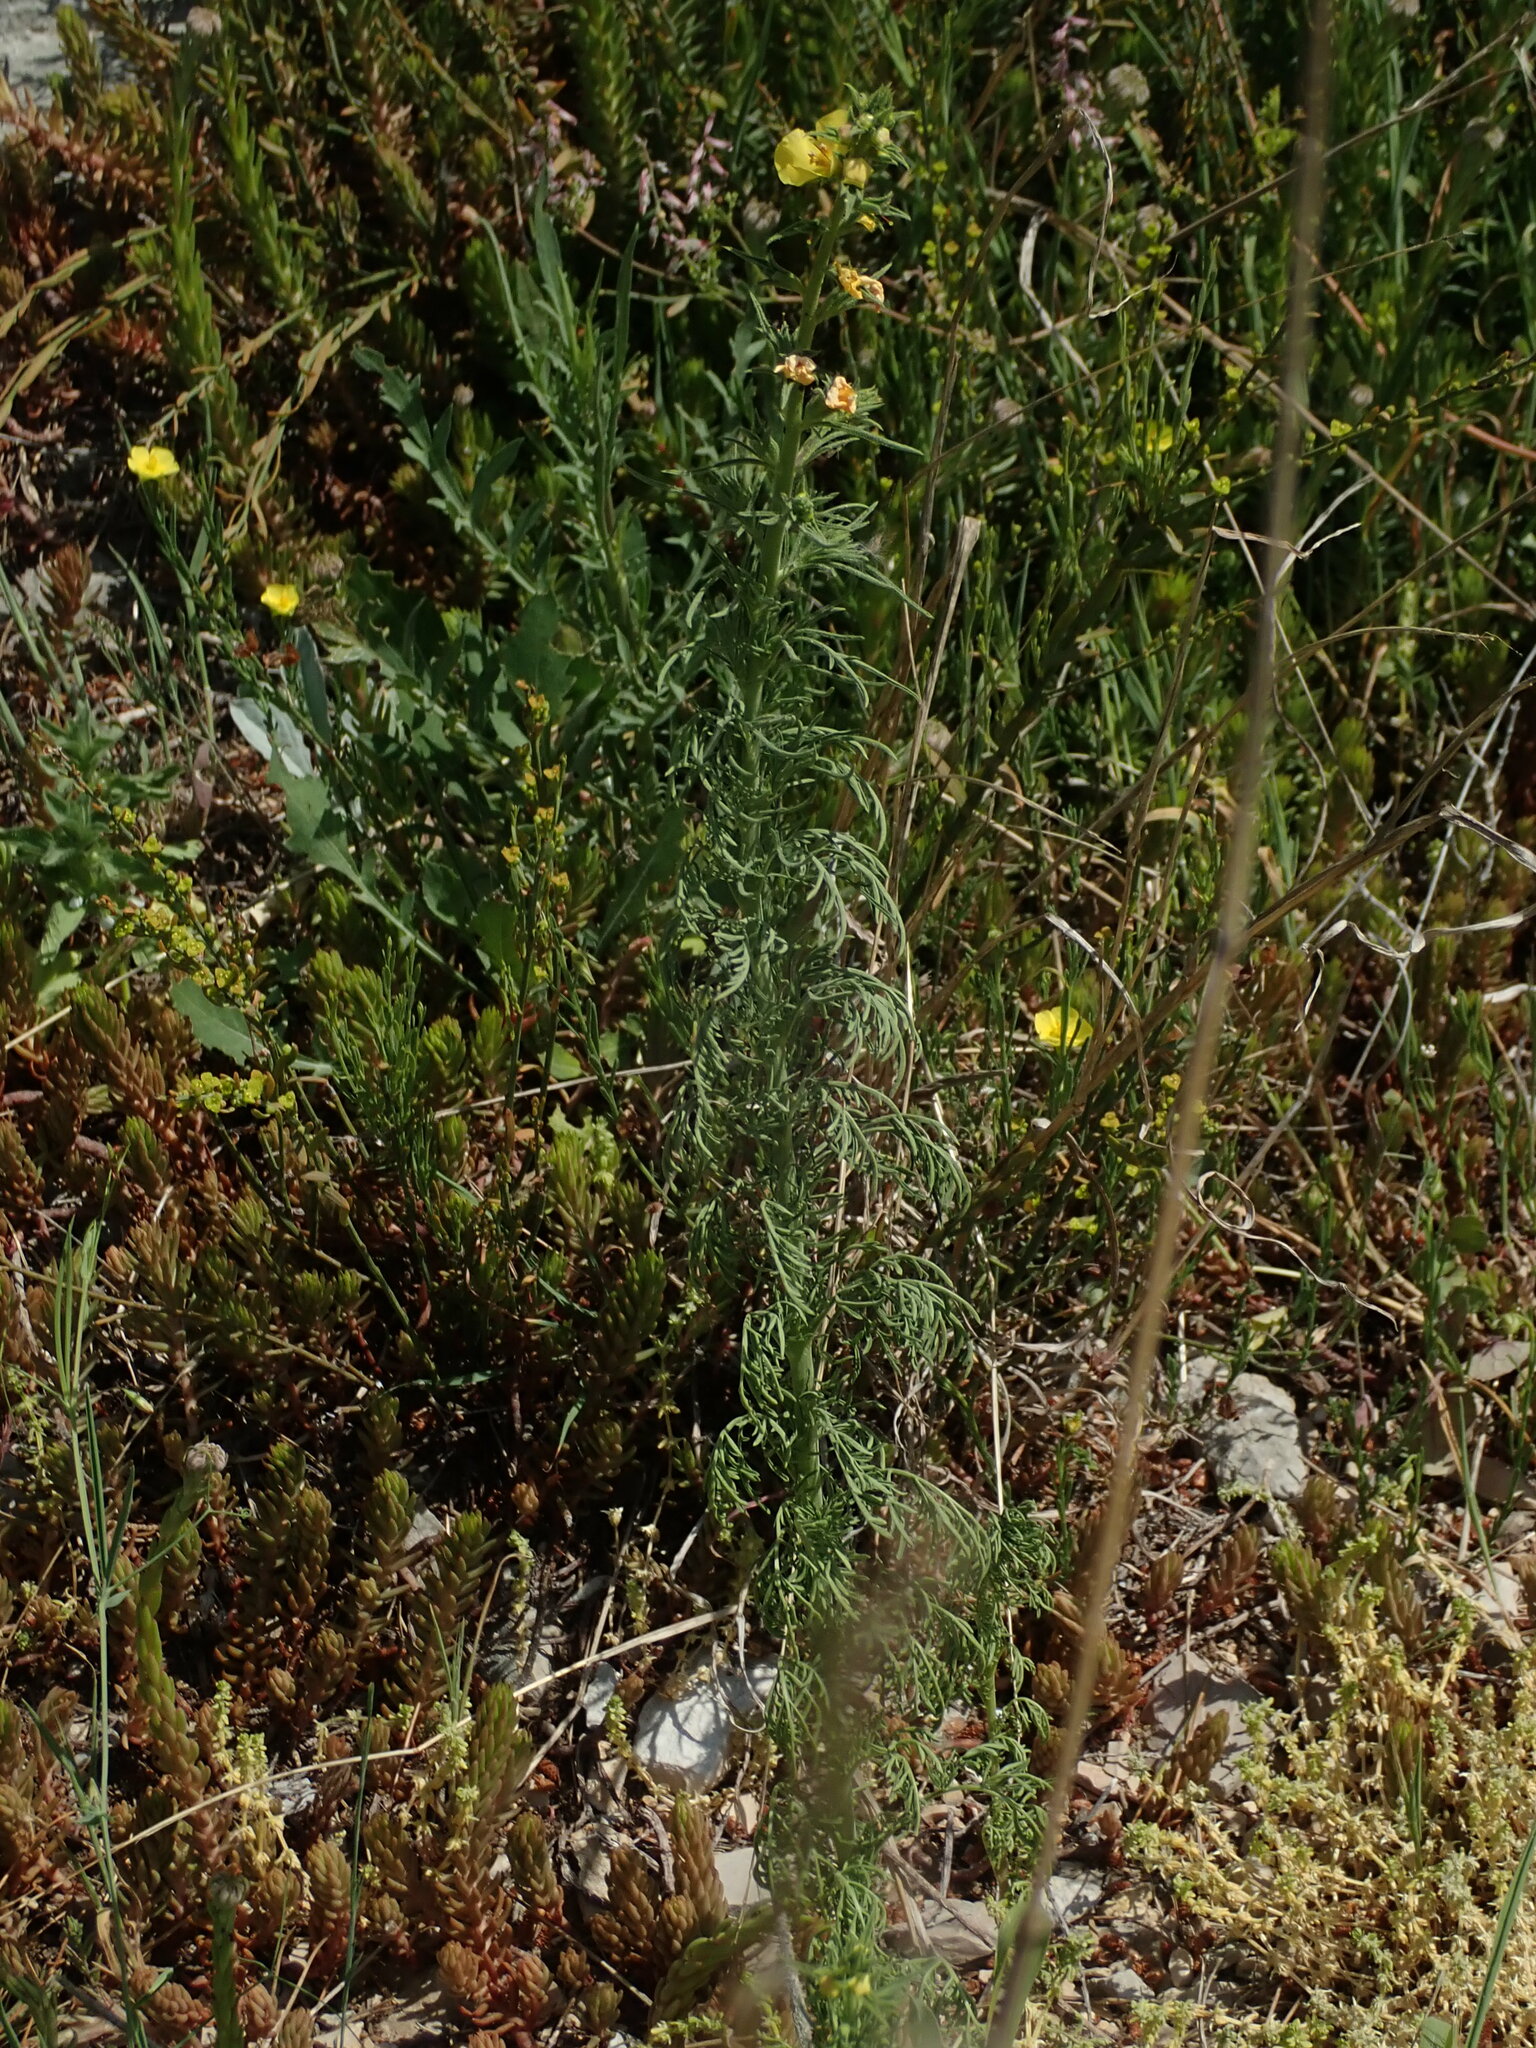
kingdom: Plantae
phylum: Tracheophyta
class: Magnoliopsida
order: Lamiales
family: Scrophulariaceae
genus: Verbascum
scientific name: Verbascum orientale
